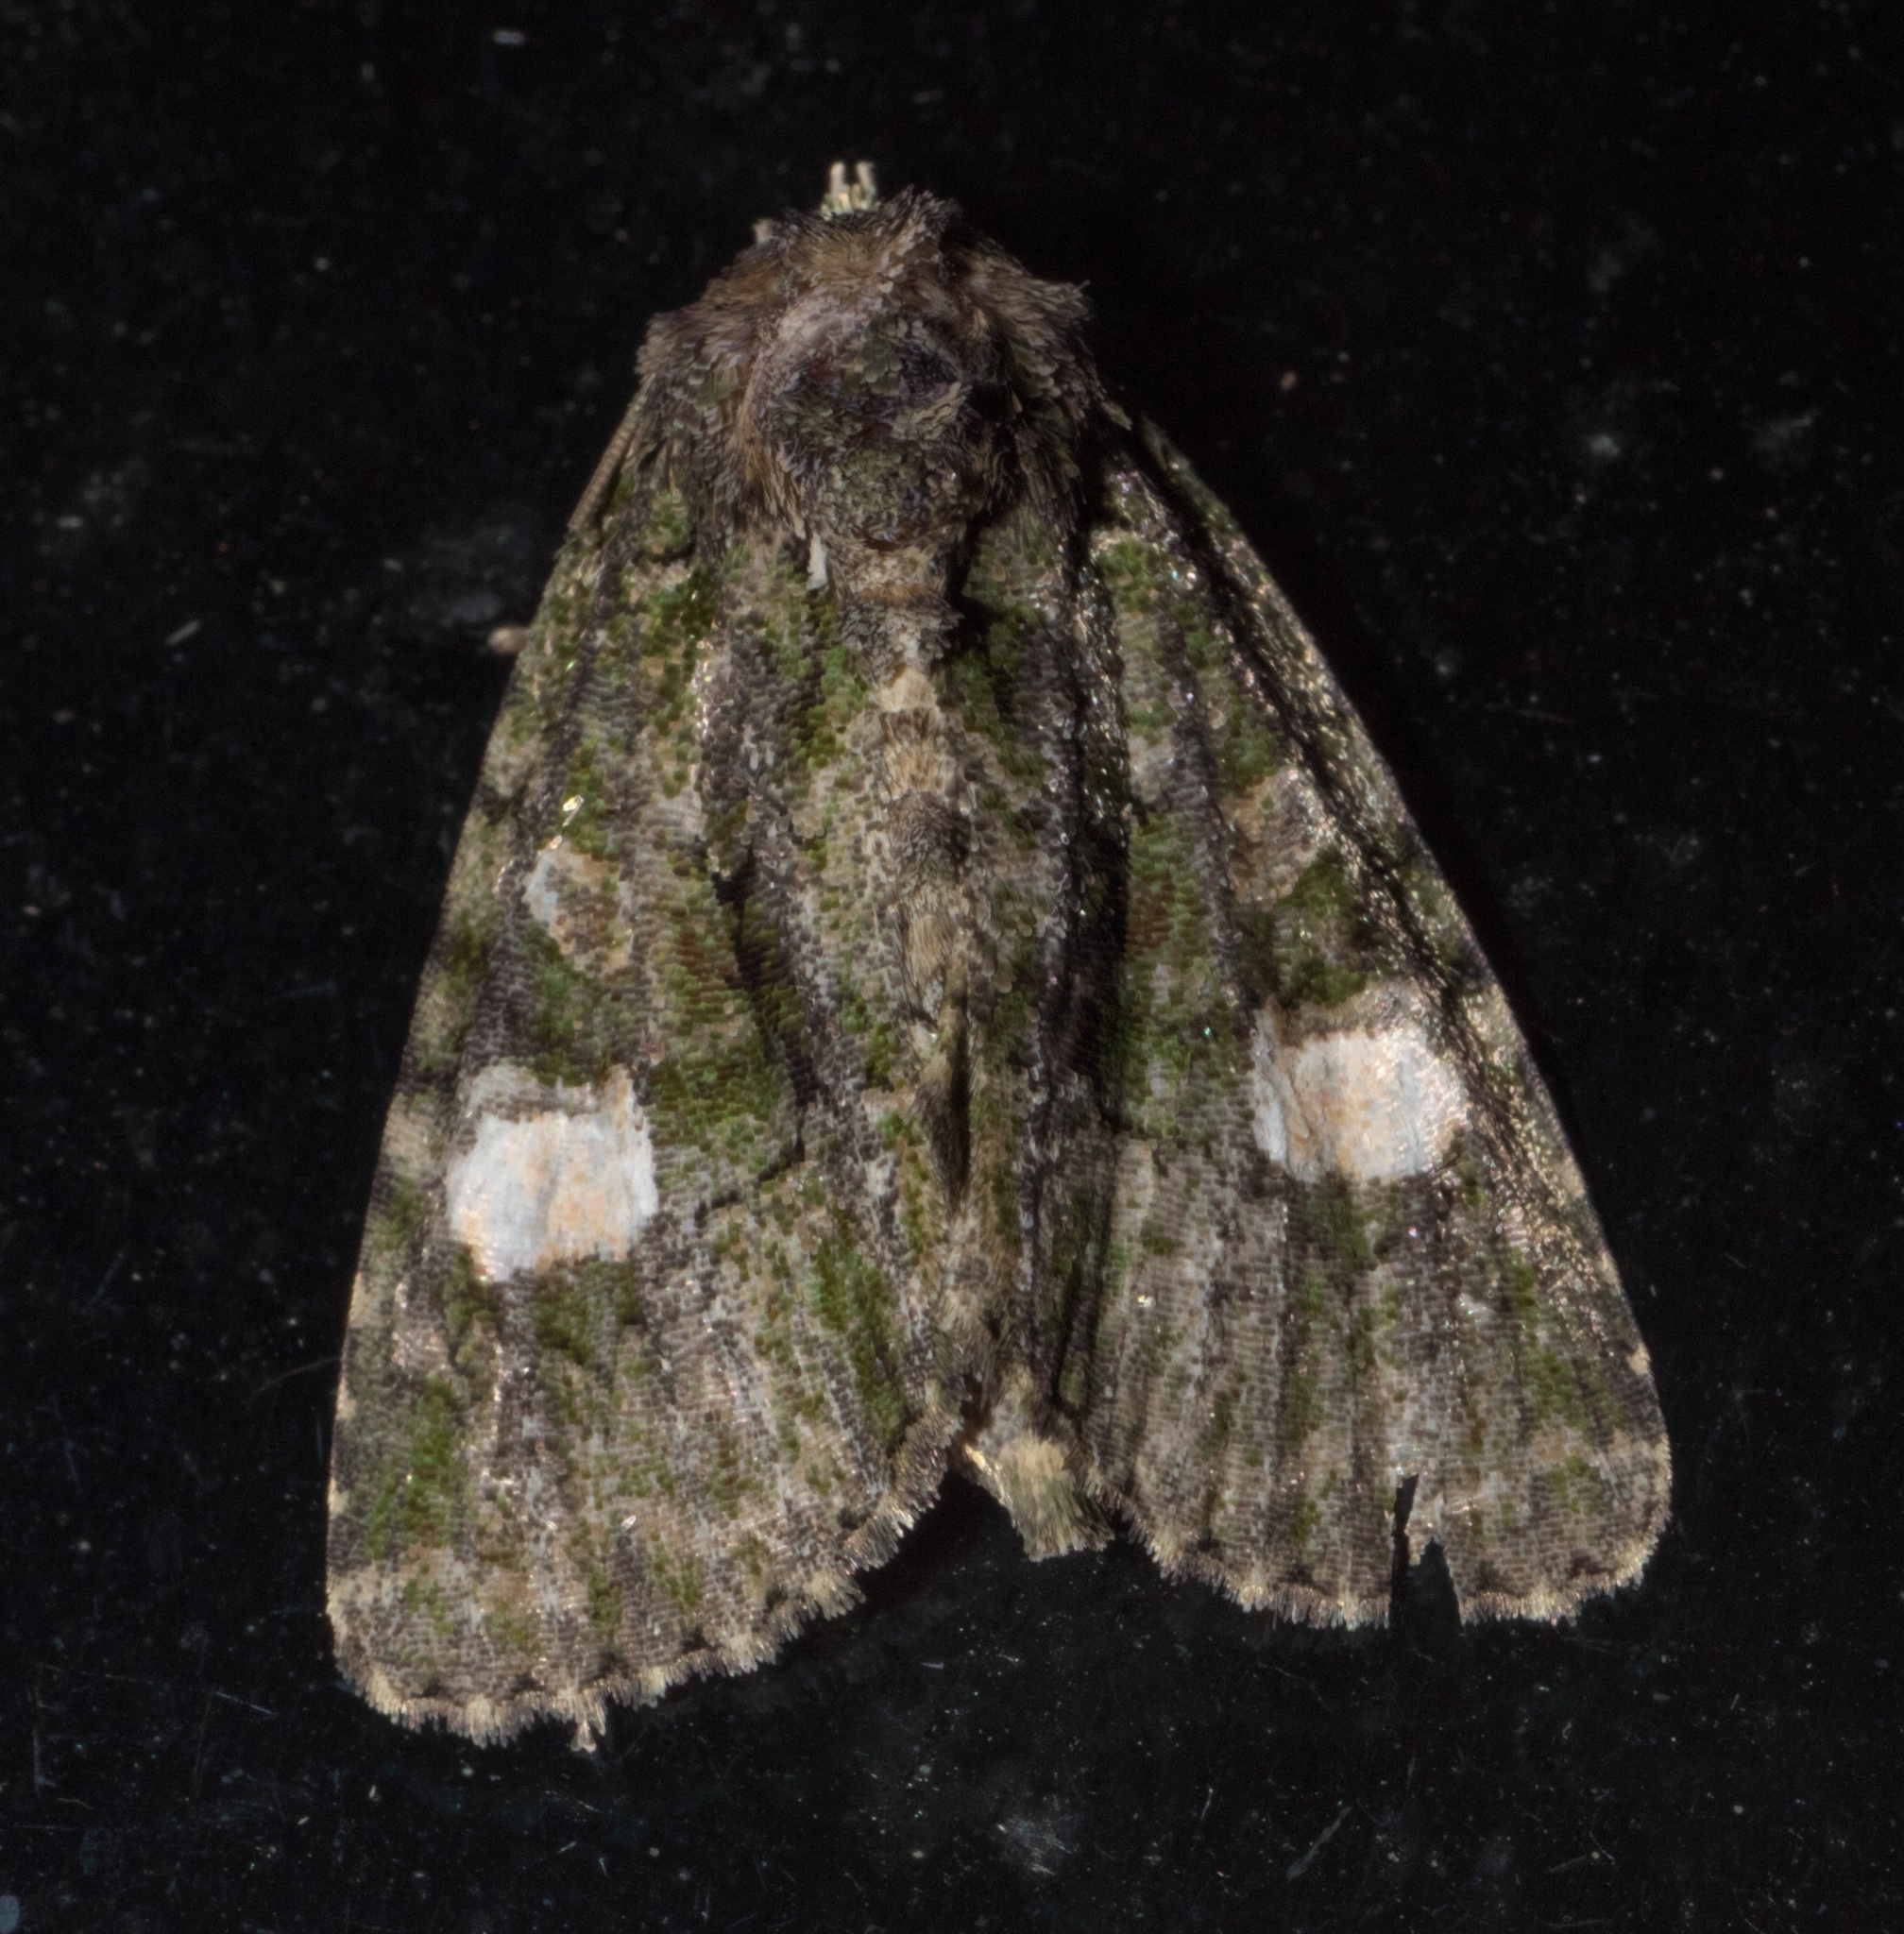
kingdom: Animalia
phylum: Arthropoda
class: Insecta
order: Lepidoptera
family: Noctuidae
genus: Phosphila
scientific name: Phosphila miselioides
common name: Spotted phosphila moth
